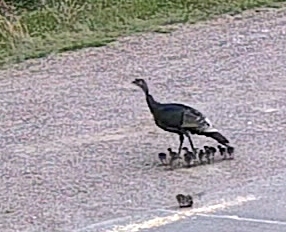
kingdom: Animalia
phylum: Chordata
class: Aves
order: Galliformes
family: Phasianidae
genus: Meleagris
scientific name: Meleagris gallopavo
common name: Wild turkey
